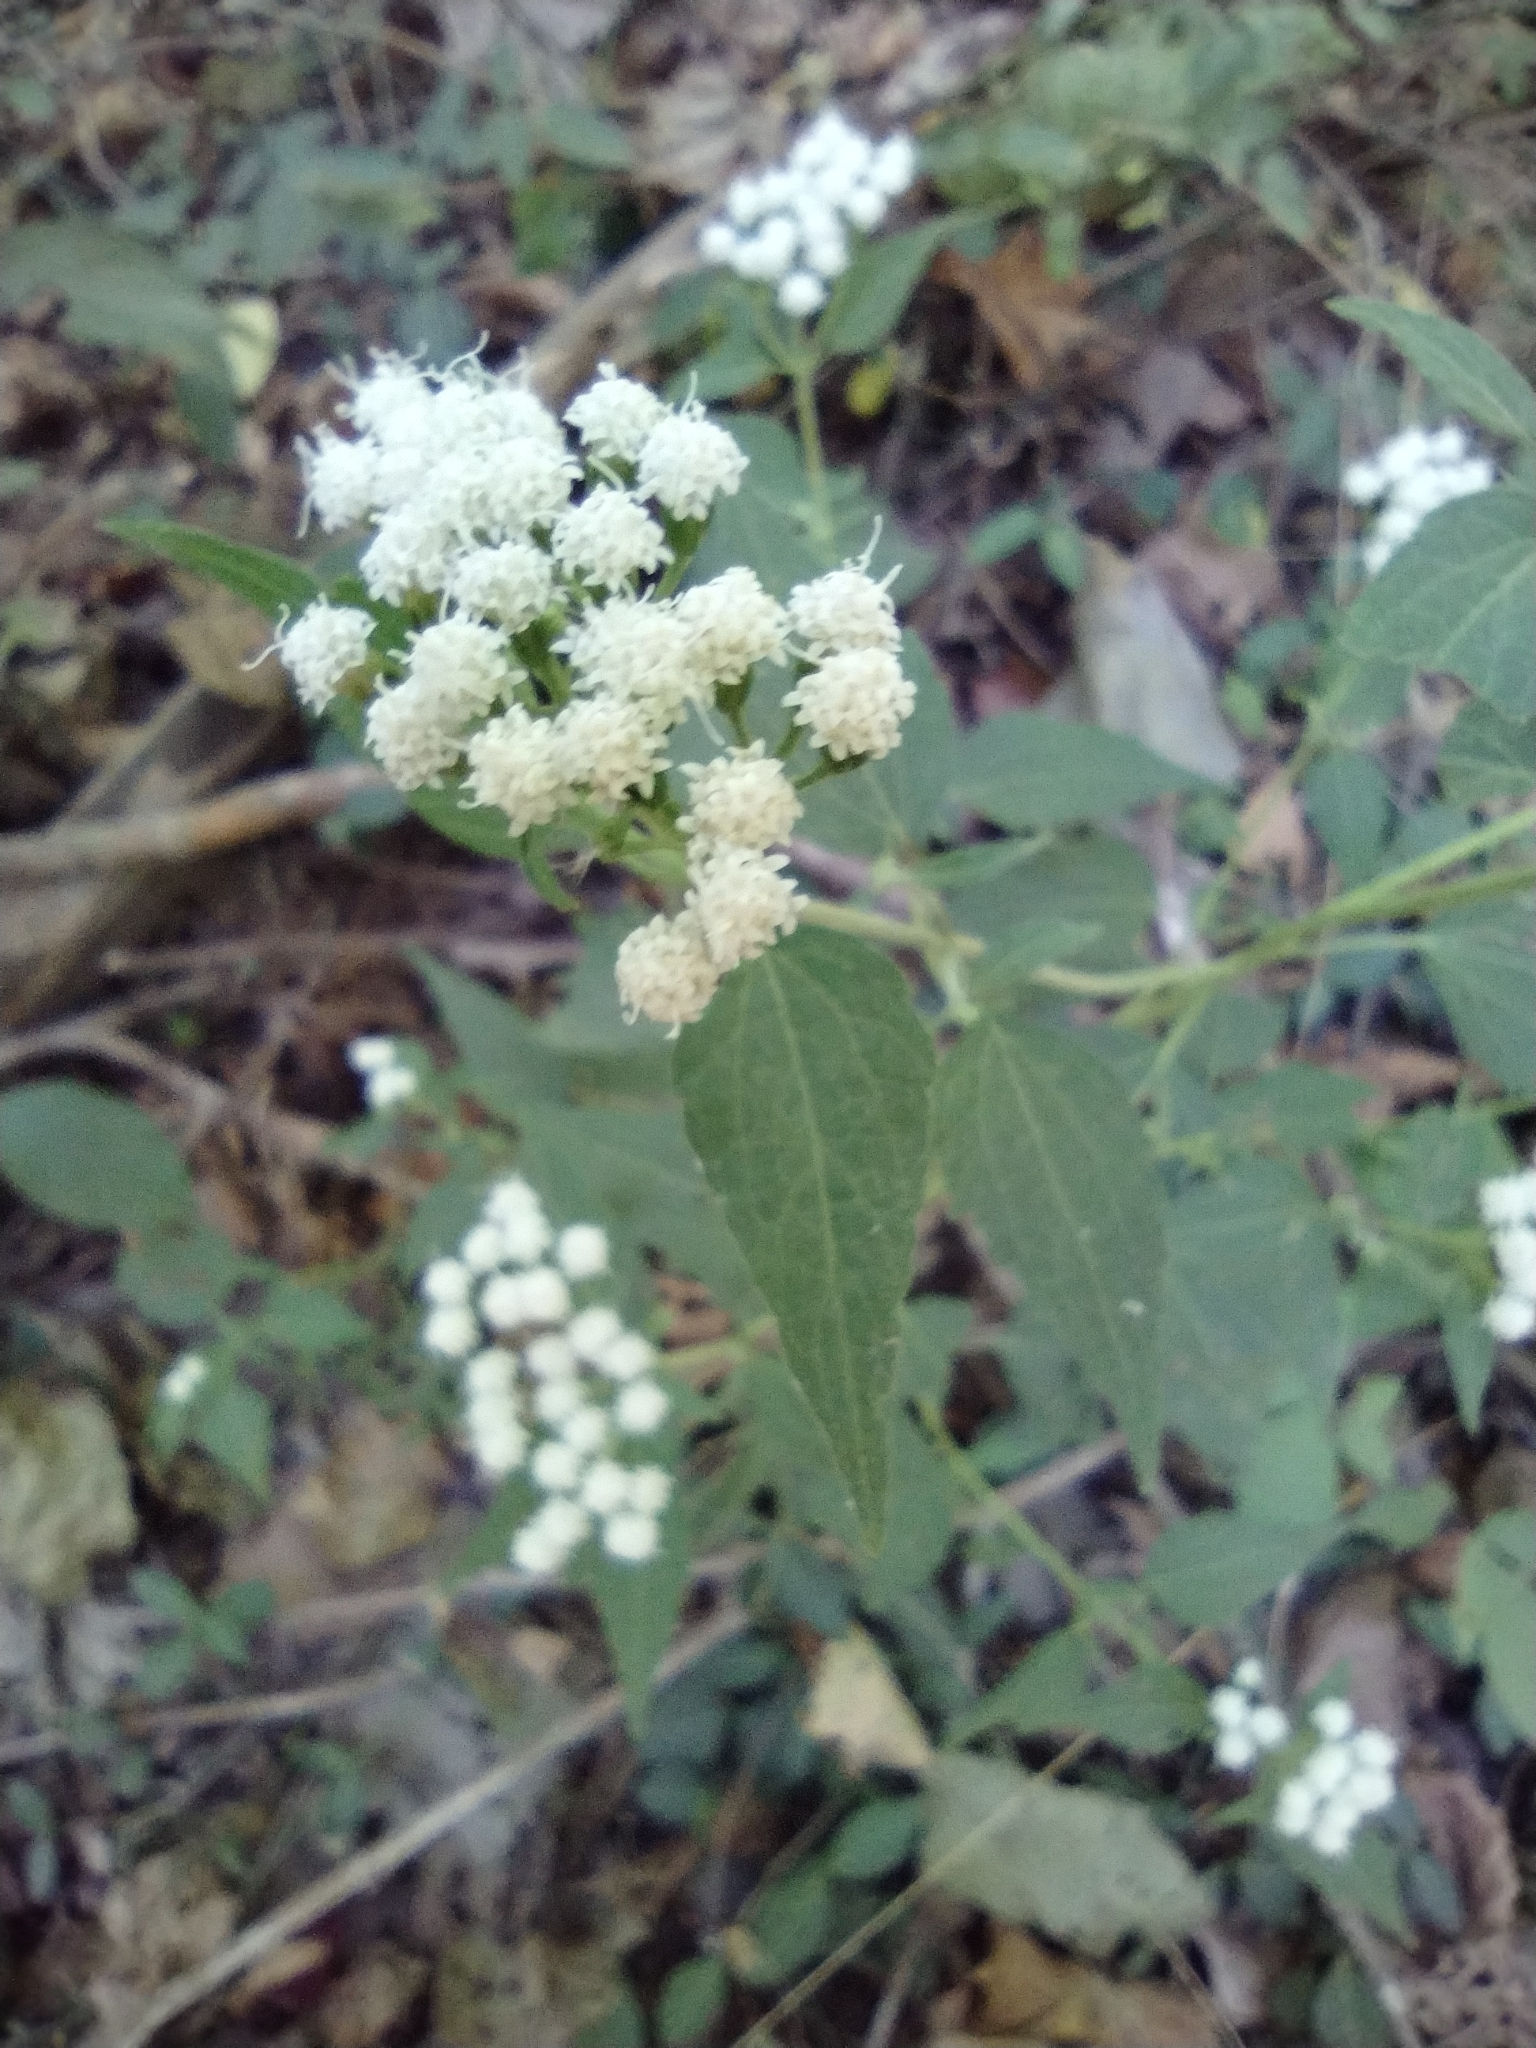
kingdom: Plantae
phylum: Tracheophyta
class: Magnoliopsida
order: Asterales
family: Asteraceae
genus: Ageratina
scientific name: Ageratina altissima
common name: White snakeroot
